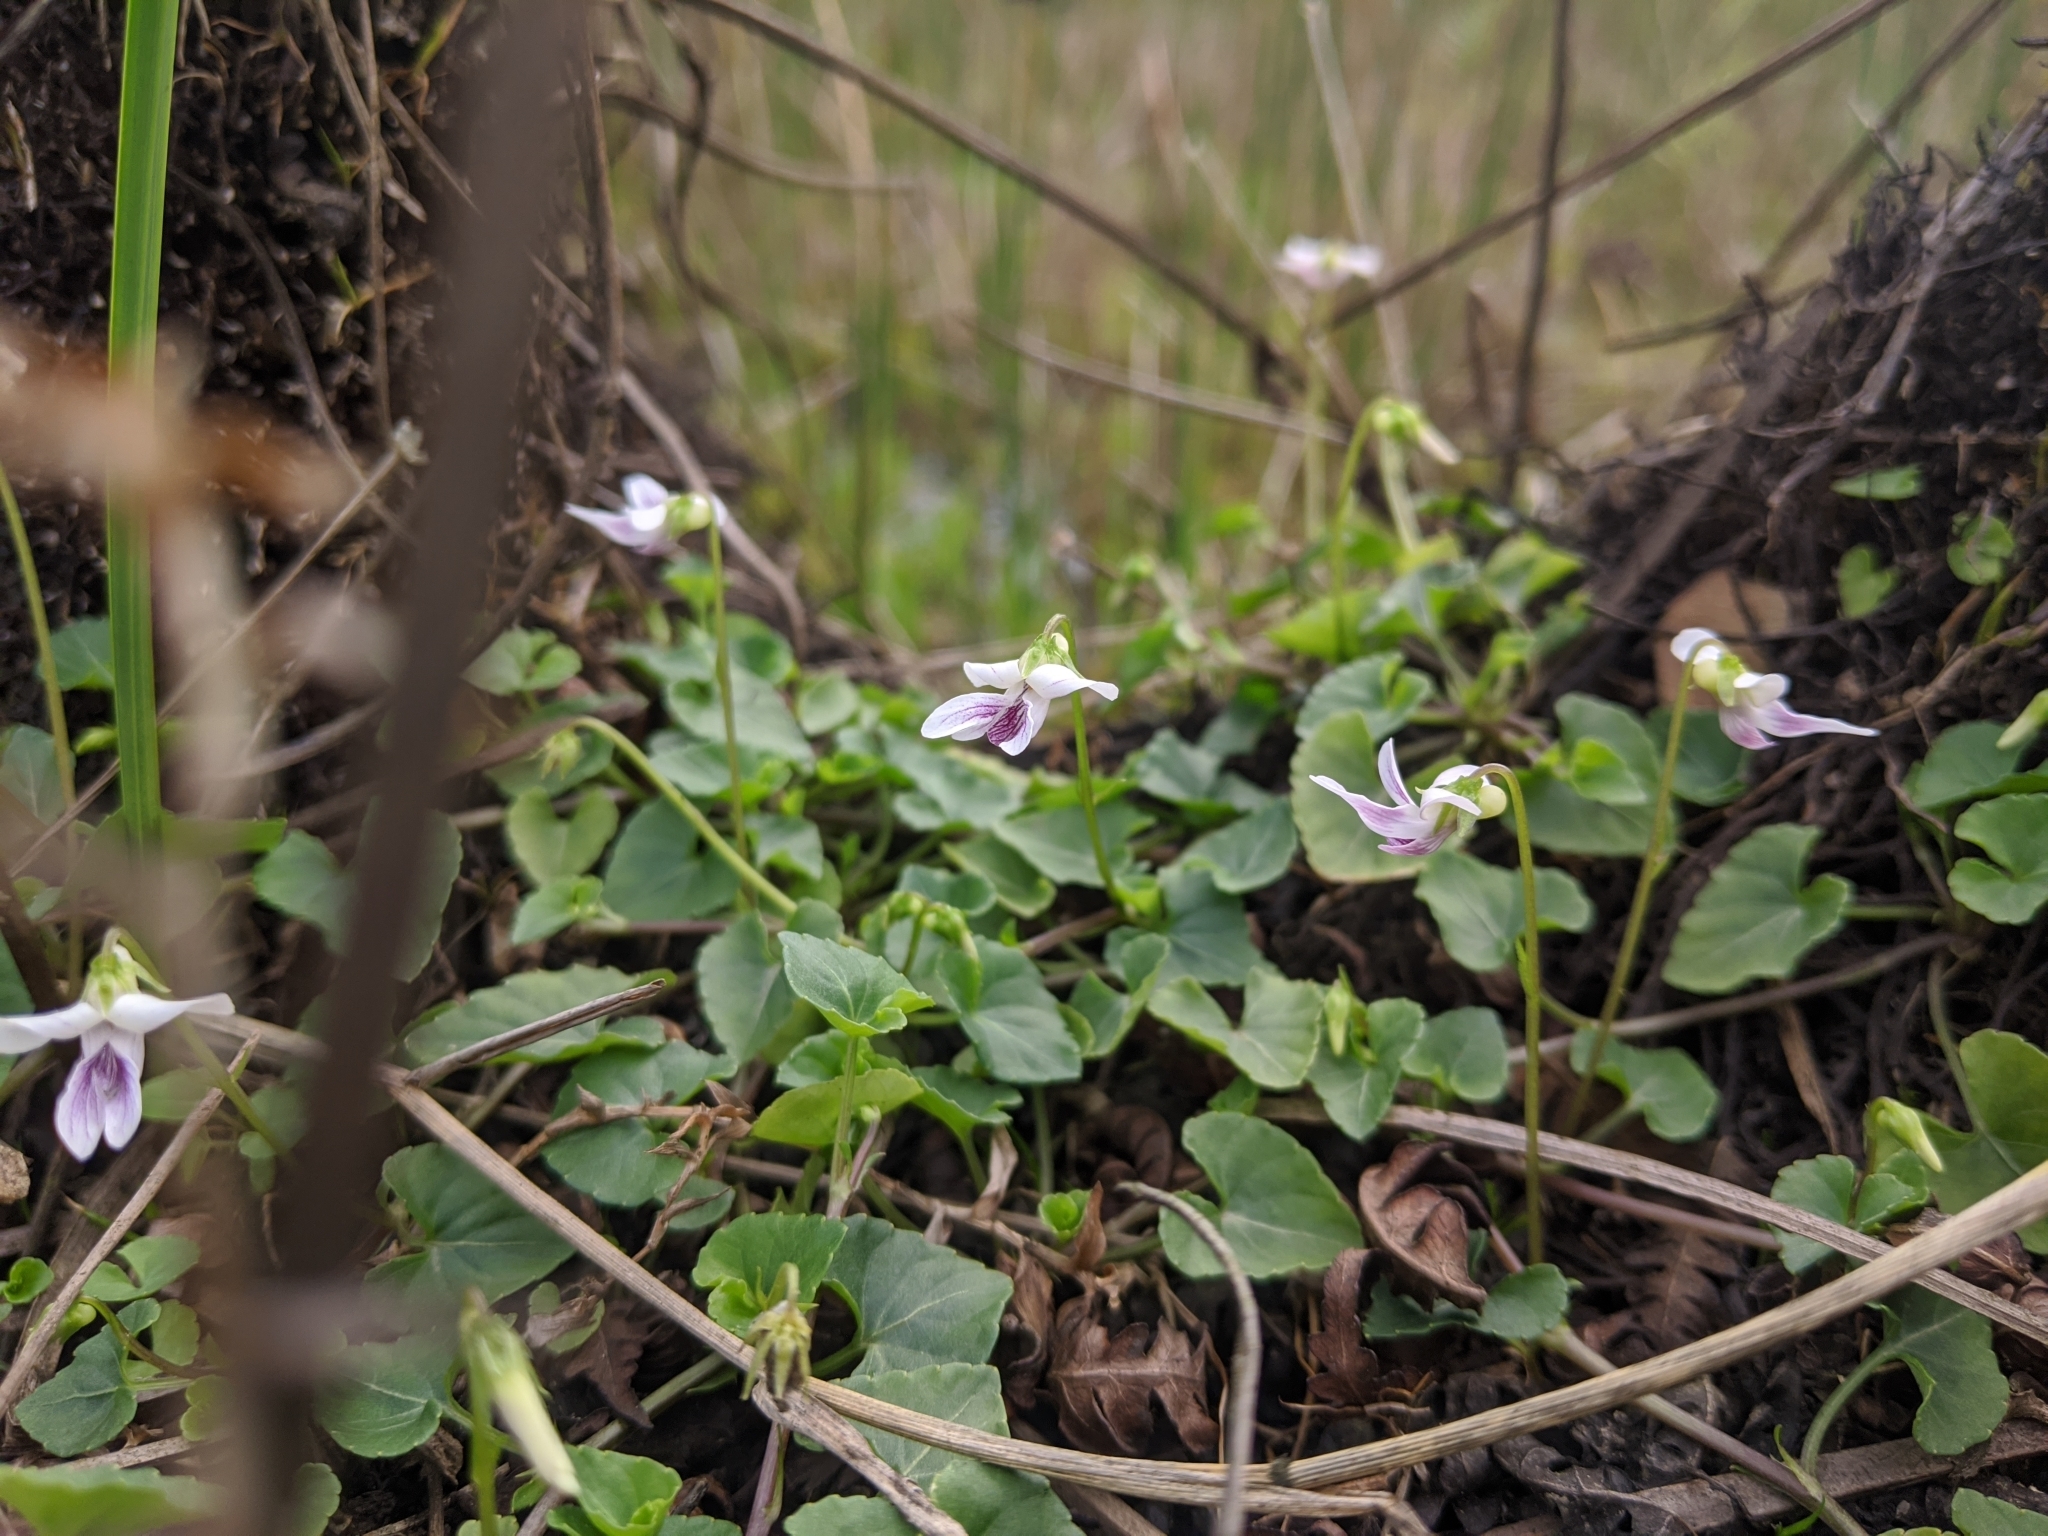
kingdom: Plantae
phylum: Tracheophyta
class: Magnoliopsida
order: Malpighiales
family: Violaceae
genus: Viola
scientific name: Viola
